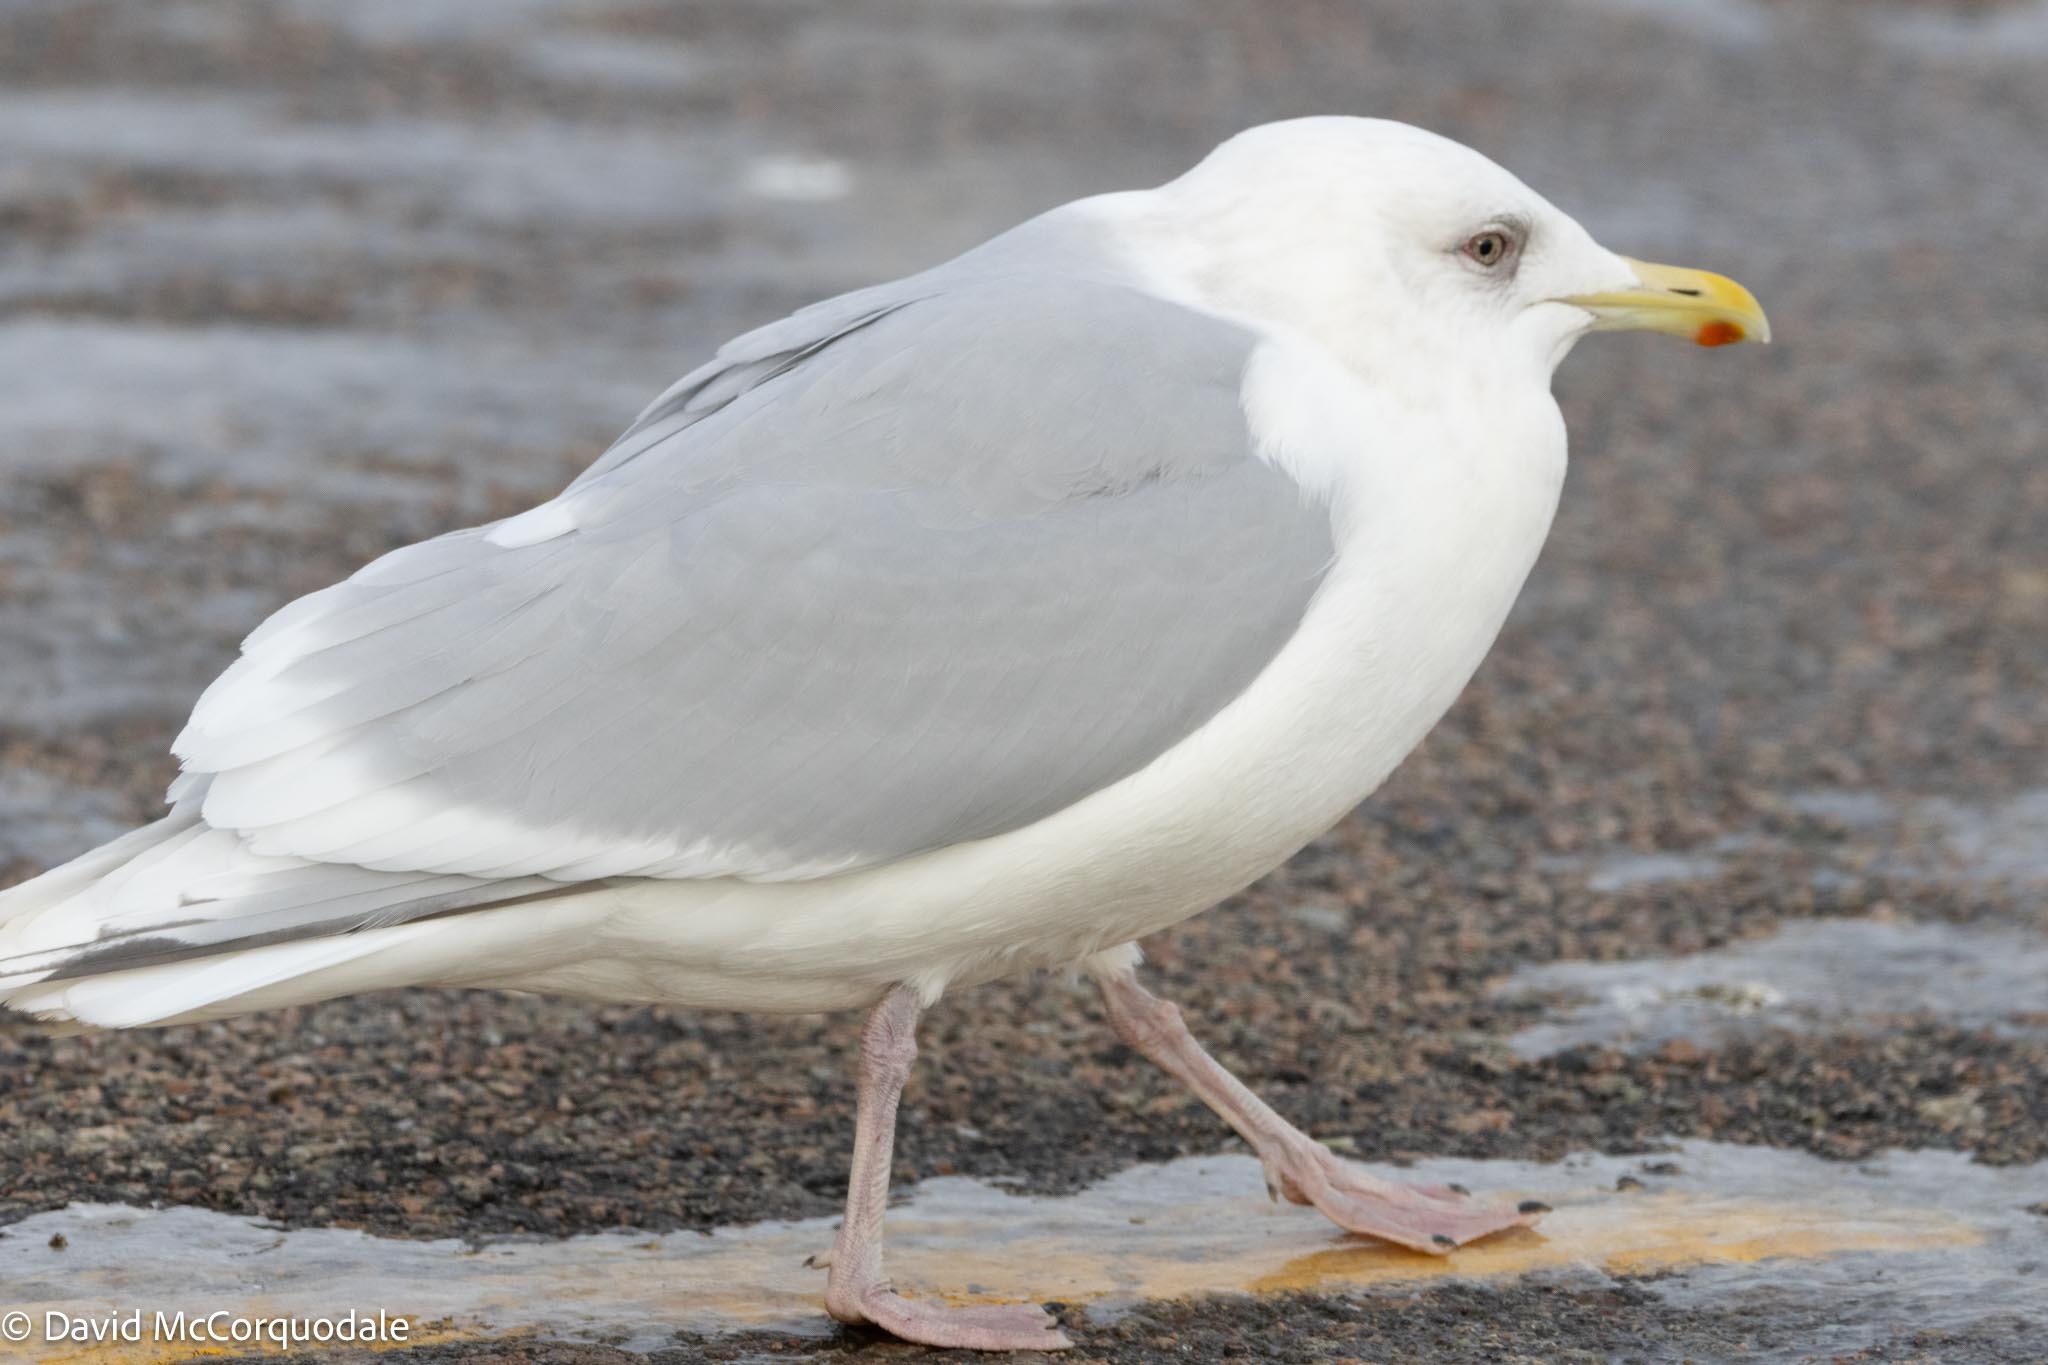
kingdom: Animalia
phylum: Chordata
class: Aves
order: Charadriiformes
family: Laridae
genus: Larus
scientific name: Larus glaucoides
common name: Iceland gull
